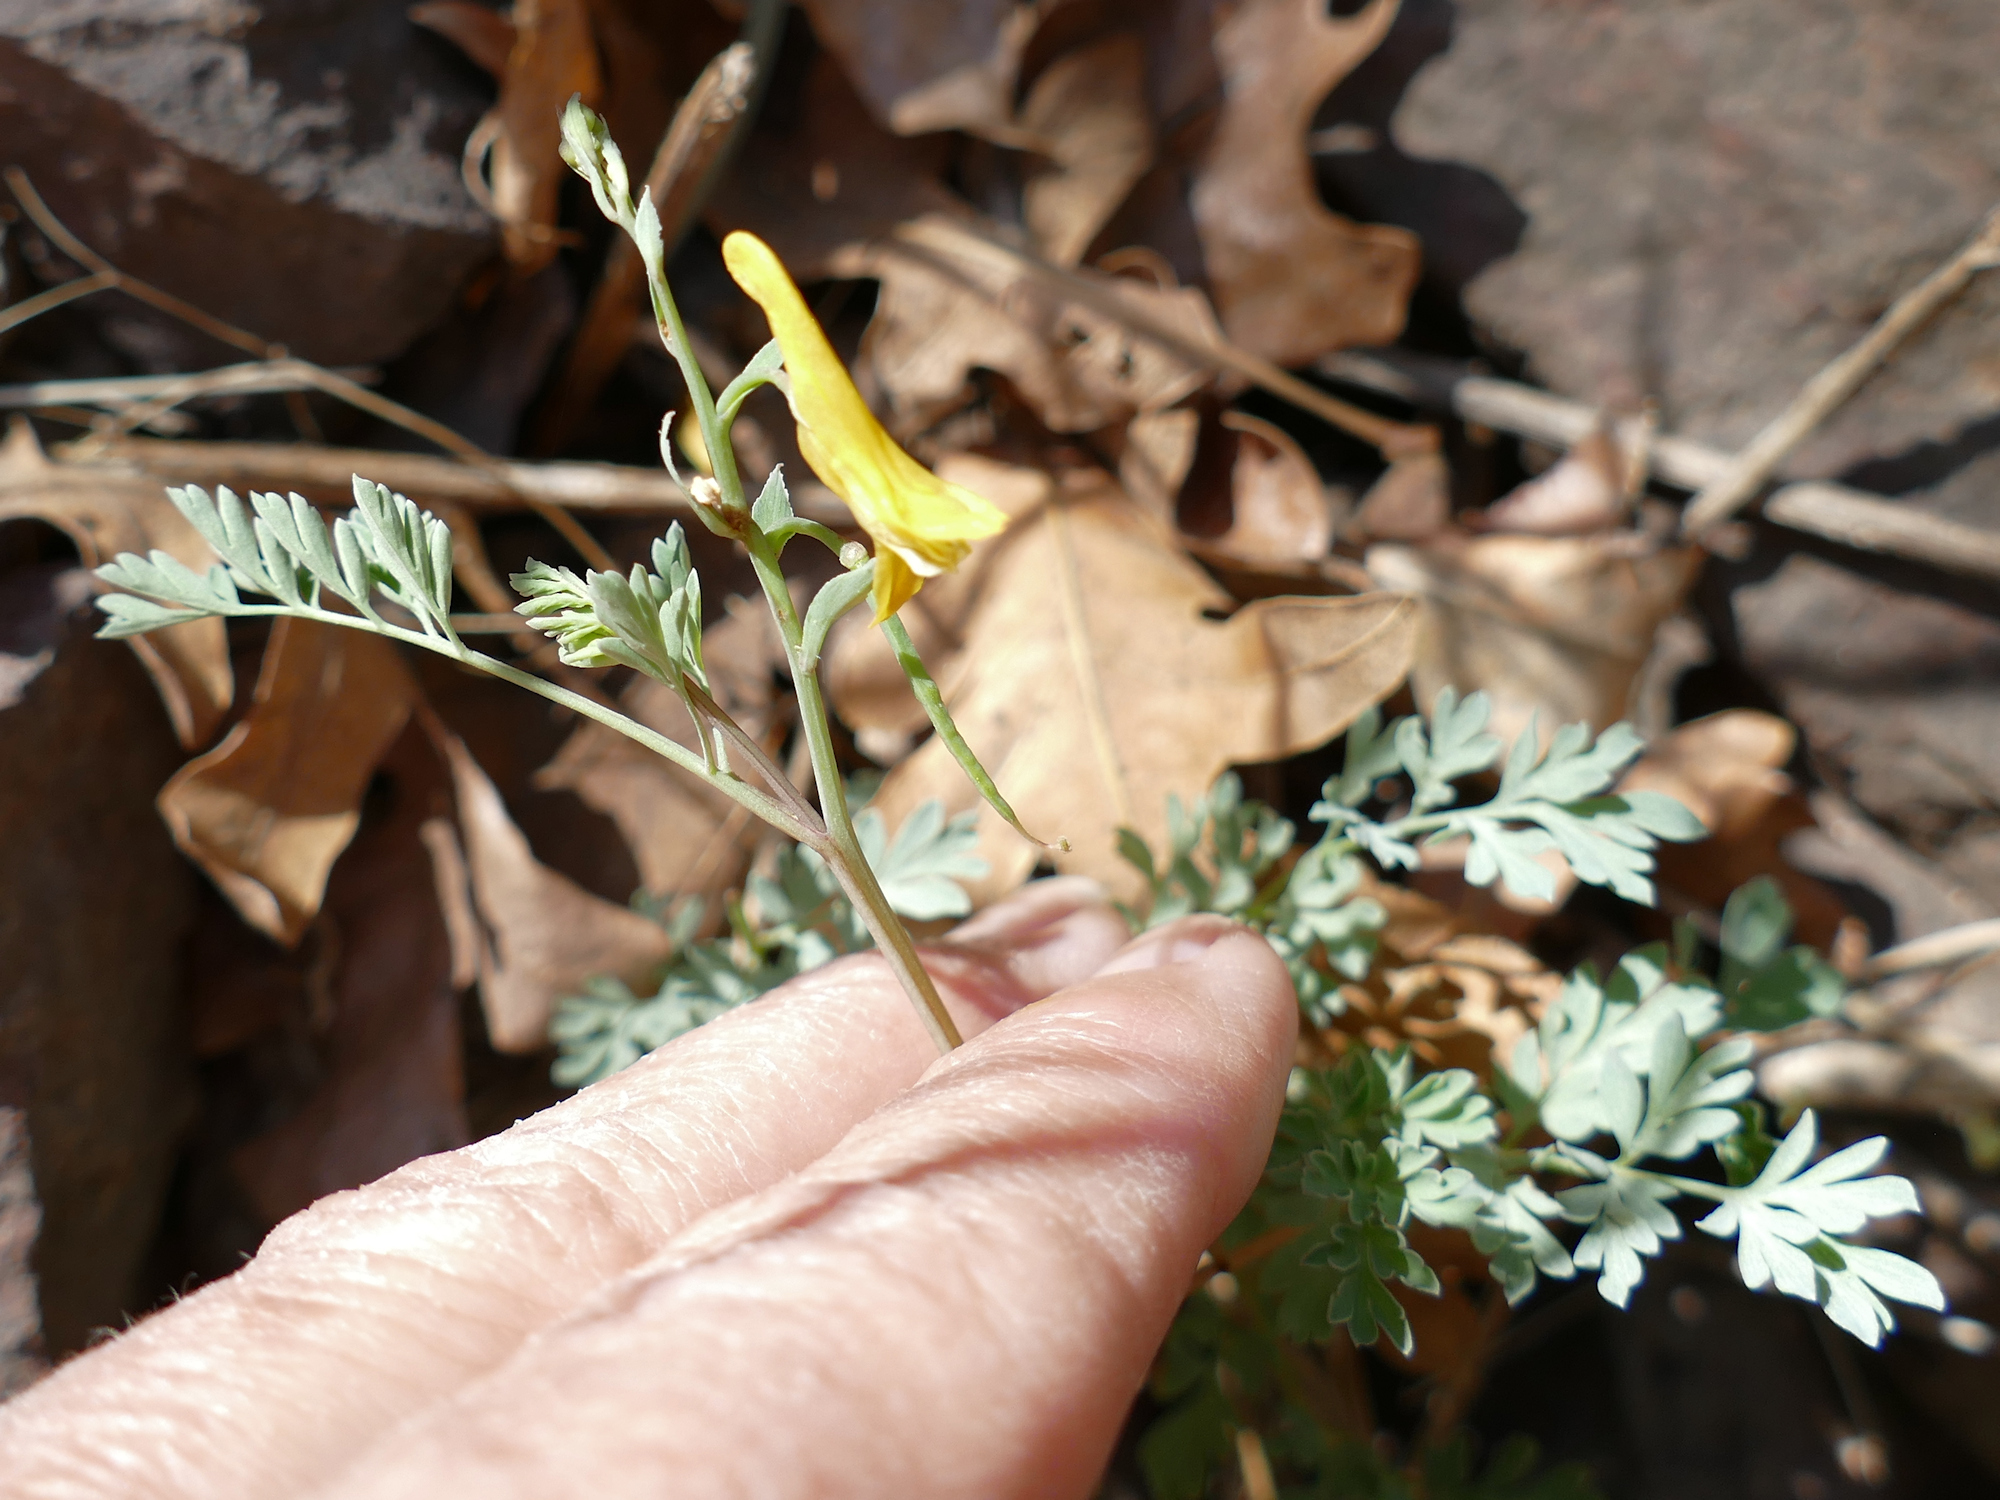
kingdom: Plantae
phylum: Tracheophyta
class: Magnoliopsida
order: Ranunculales
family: Papaveraceae
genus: Corydalis
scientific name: Corydalis aurea
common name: Golden corydalis
